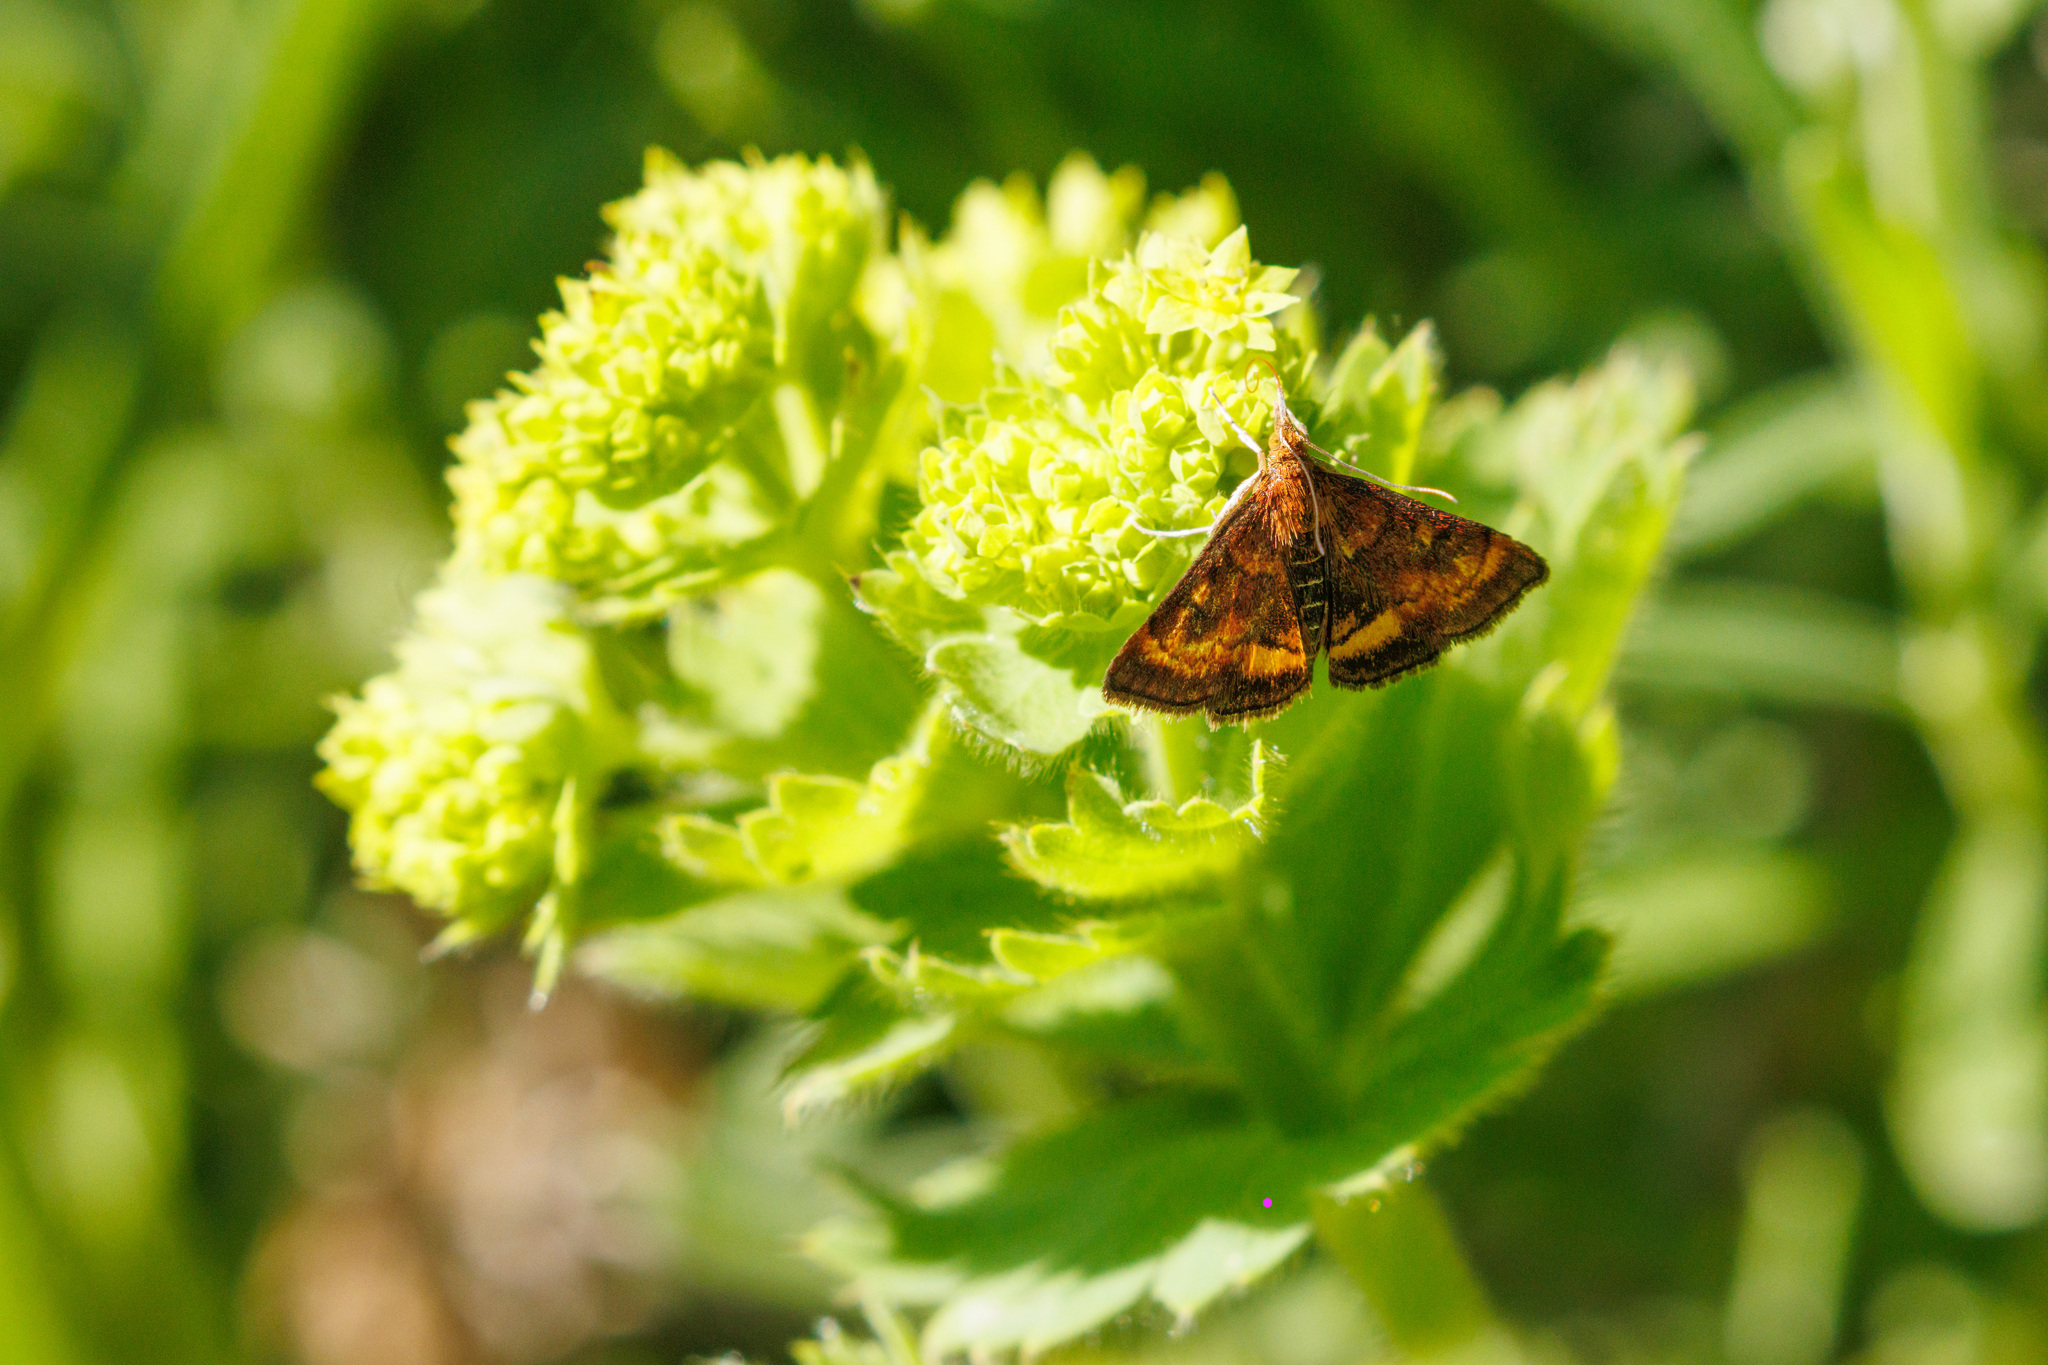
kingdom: Animalia
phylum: Arthropoda
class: Insecta
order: Lepidoptera
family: Crambidae
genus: Pyrausta
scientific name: Pyrausta californicalis
